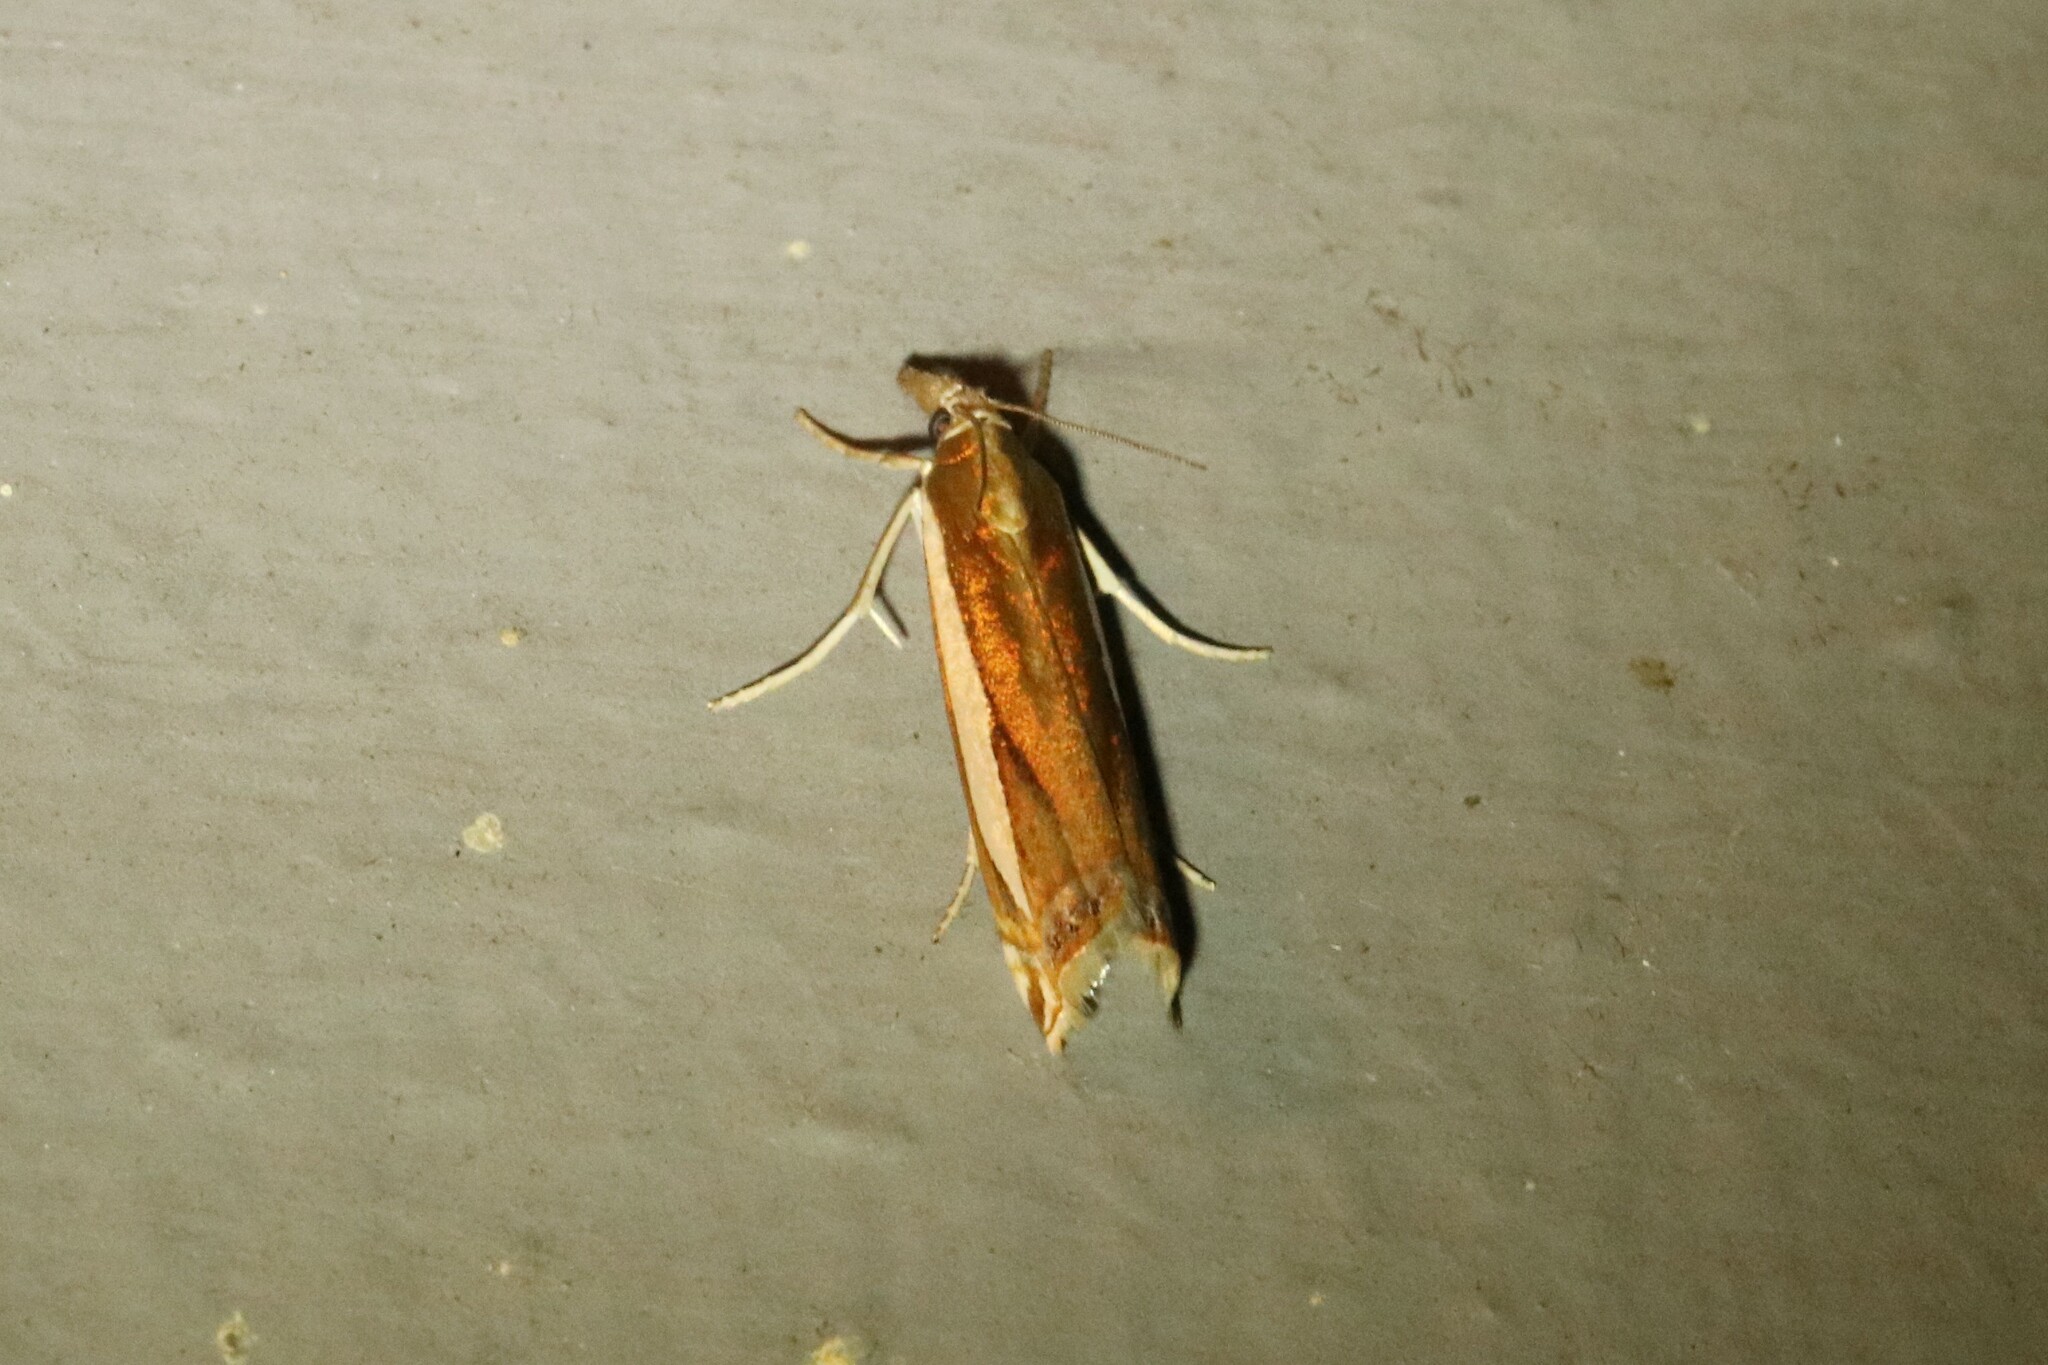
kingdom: Animalia
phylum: Arthropoda
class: Insecta
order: Lepidoptera
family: Crambidae
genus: Crambus
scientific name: Crambus praefectellus
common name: Common grass-veneer
